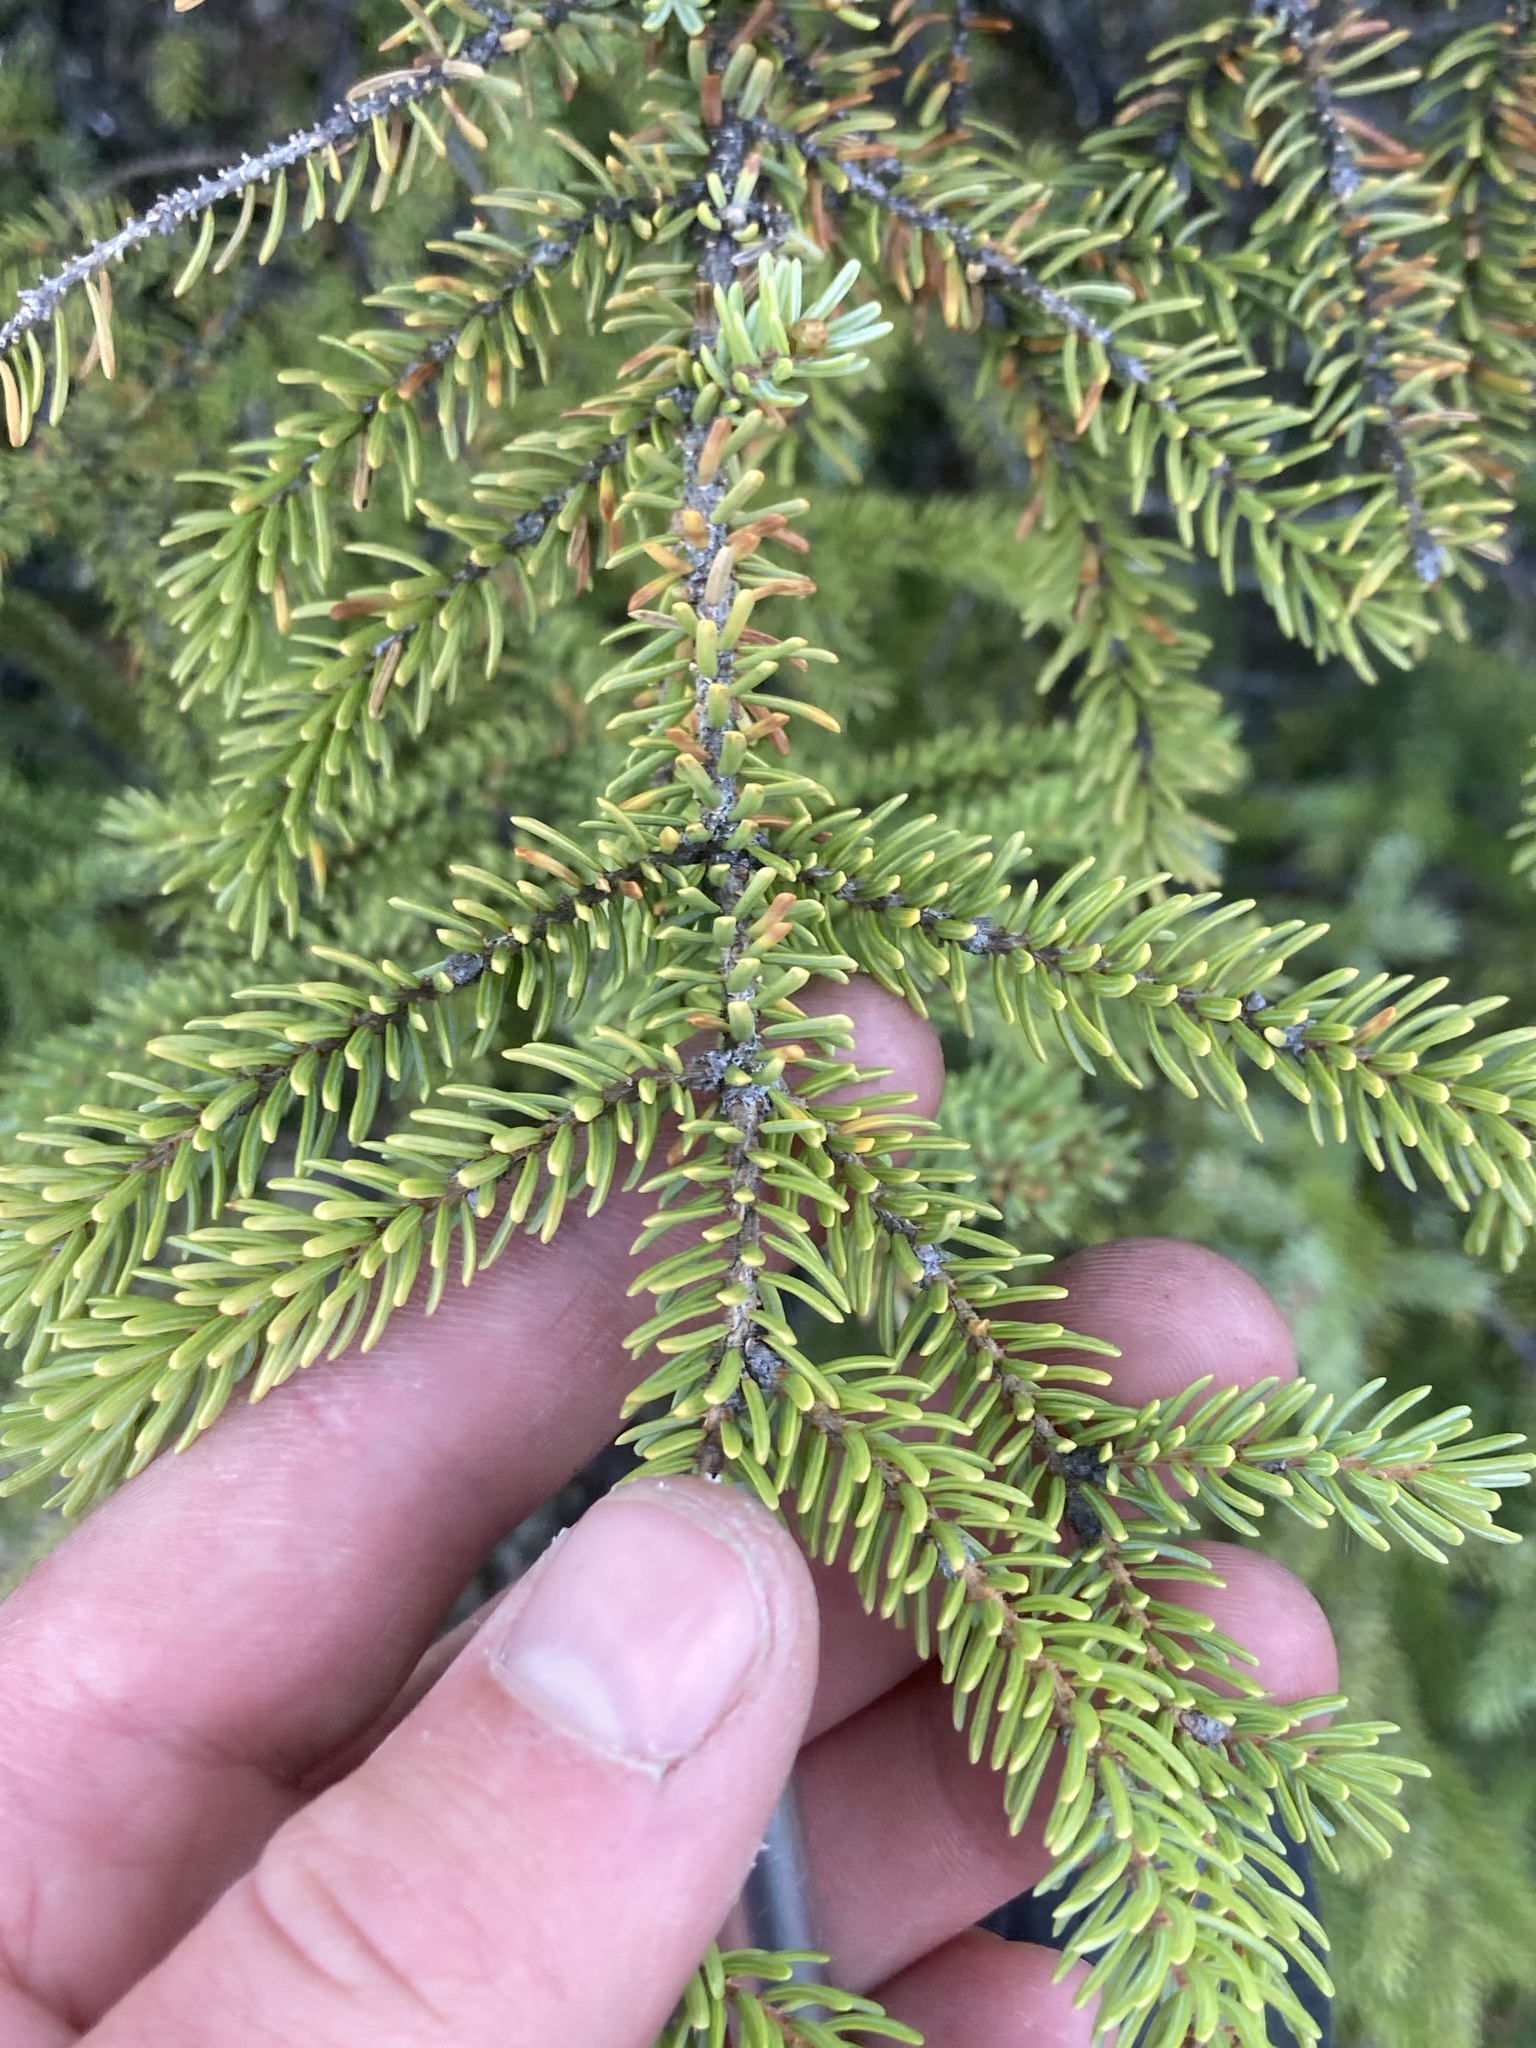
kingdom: Plantae
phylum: Tracheophyta
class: Pinopsida
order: Pinales
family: Pinaceae
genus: Picea
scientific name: Picea mariana
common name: Black spruce
